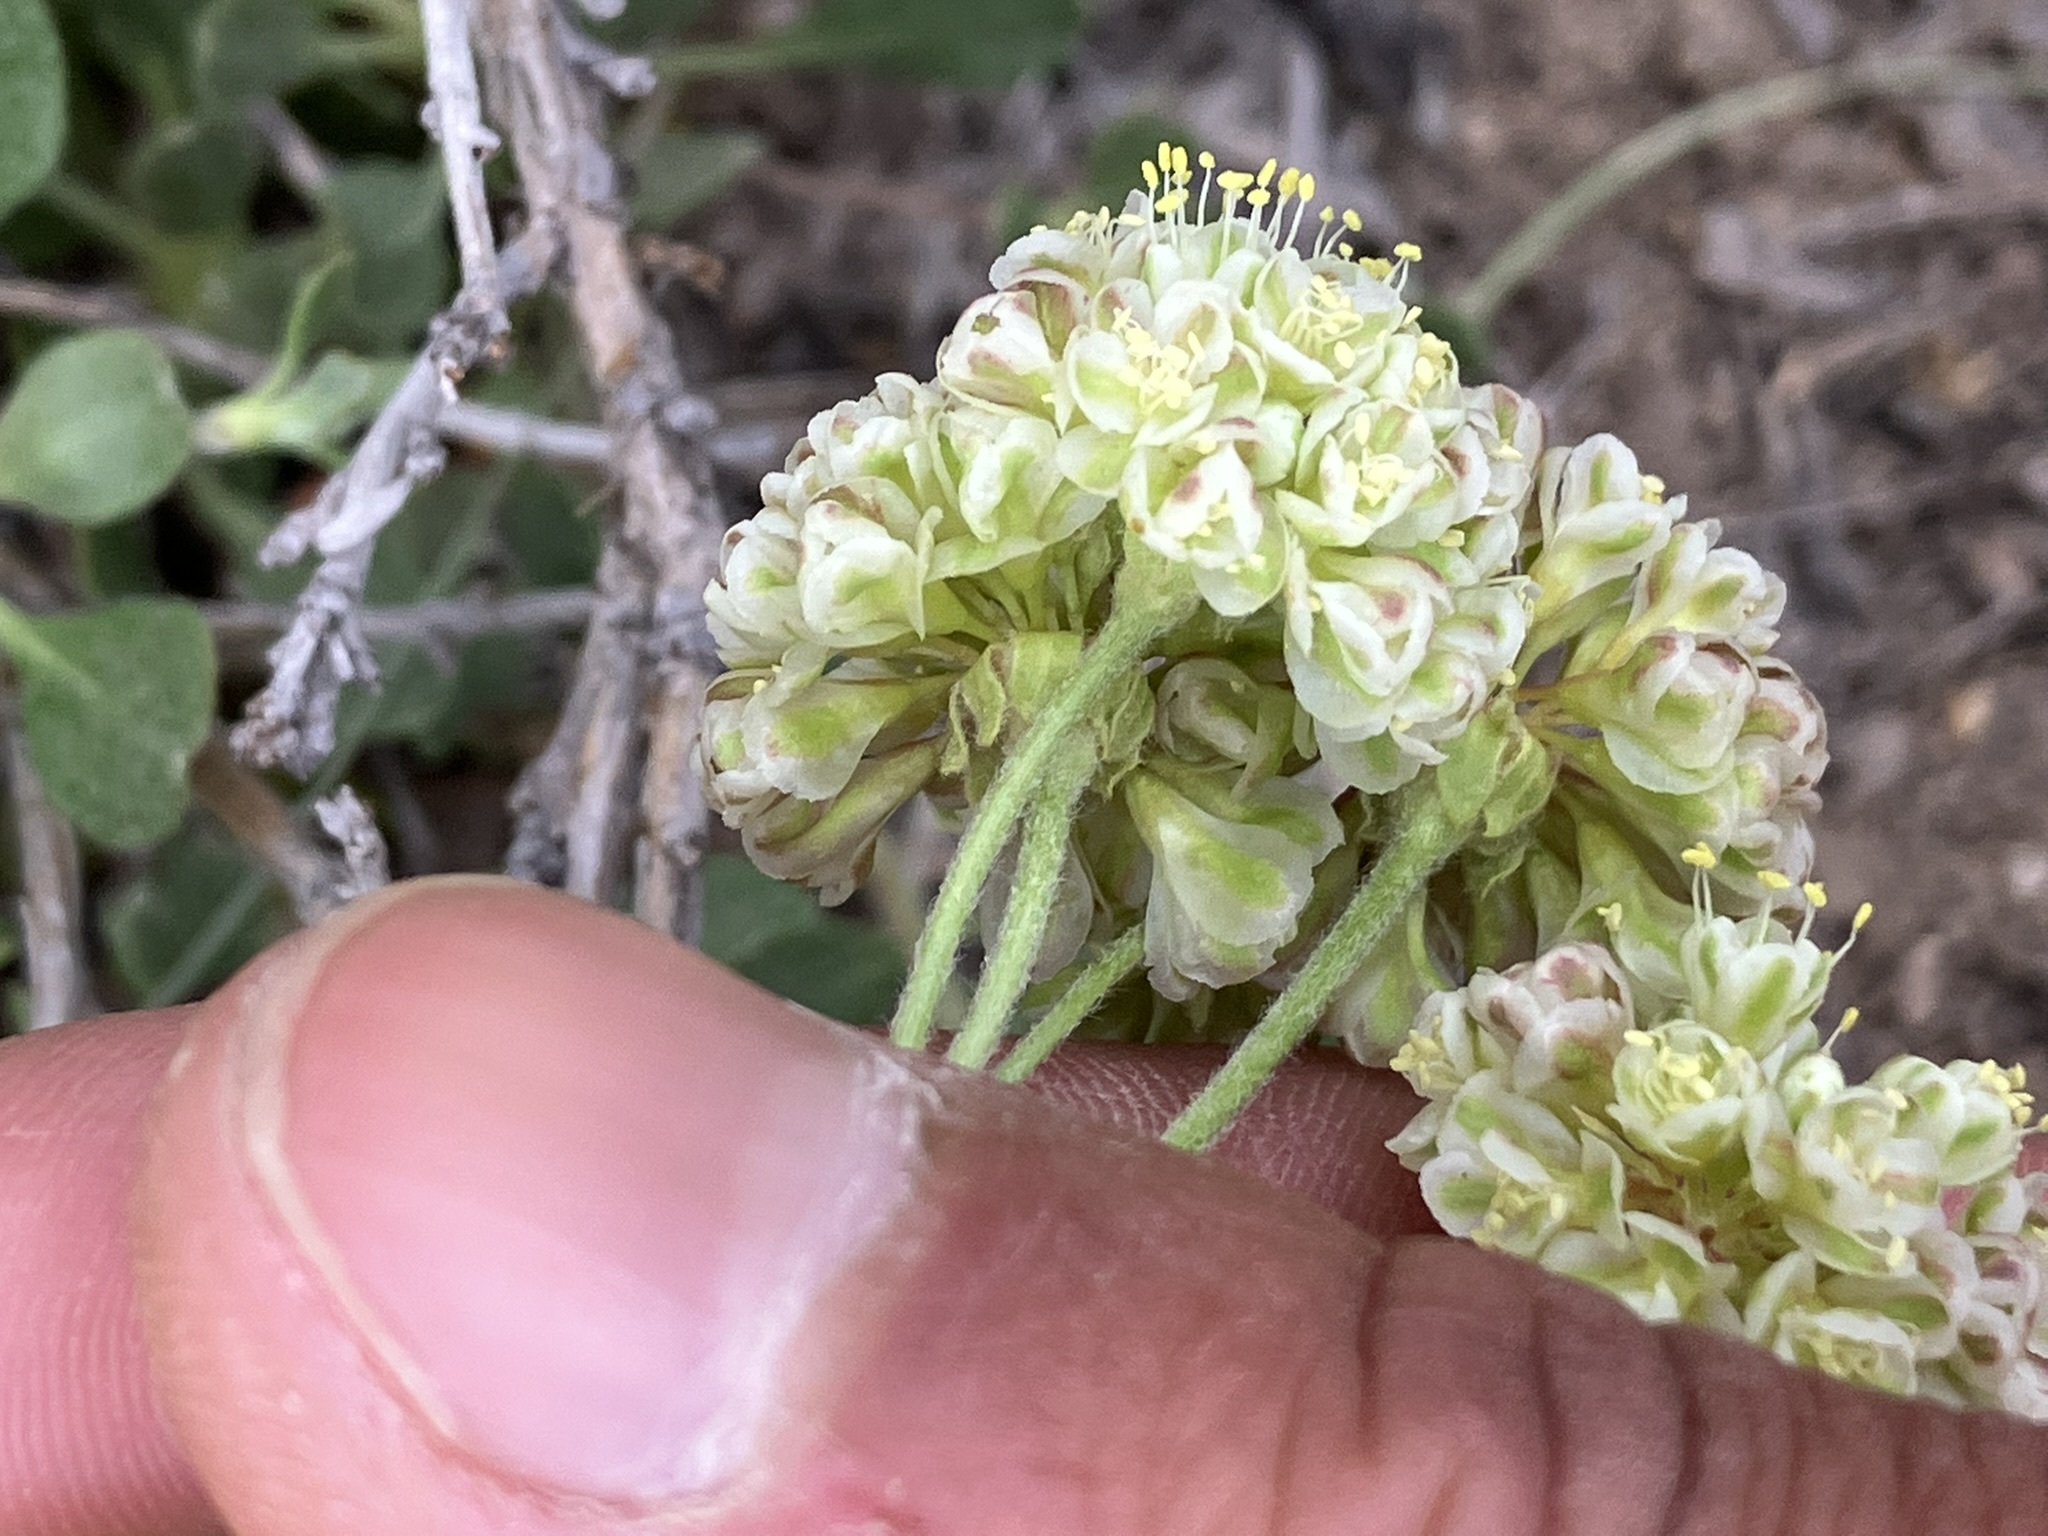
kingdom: Plantae
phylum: Tracheophyta
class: Magnoliopsida
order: Caryophyllales
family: Polygonaceae
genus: Eriogonum
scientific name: Eriogonum umbellatum
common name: Sulfur-buckwheat
